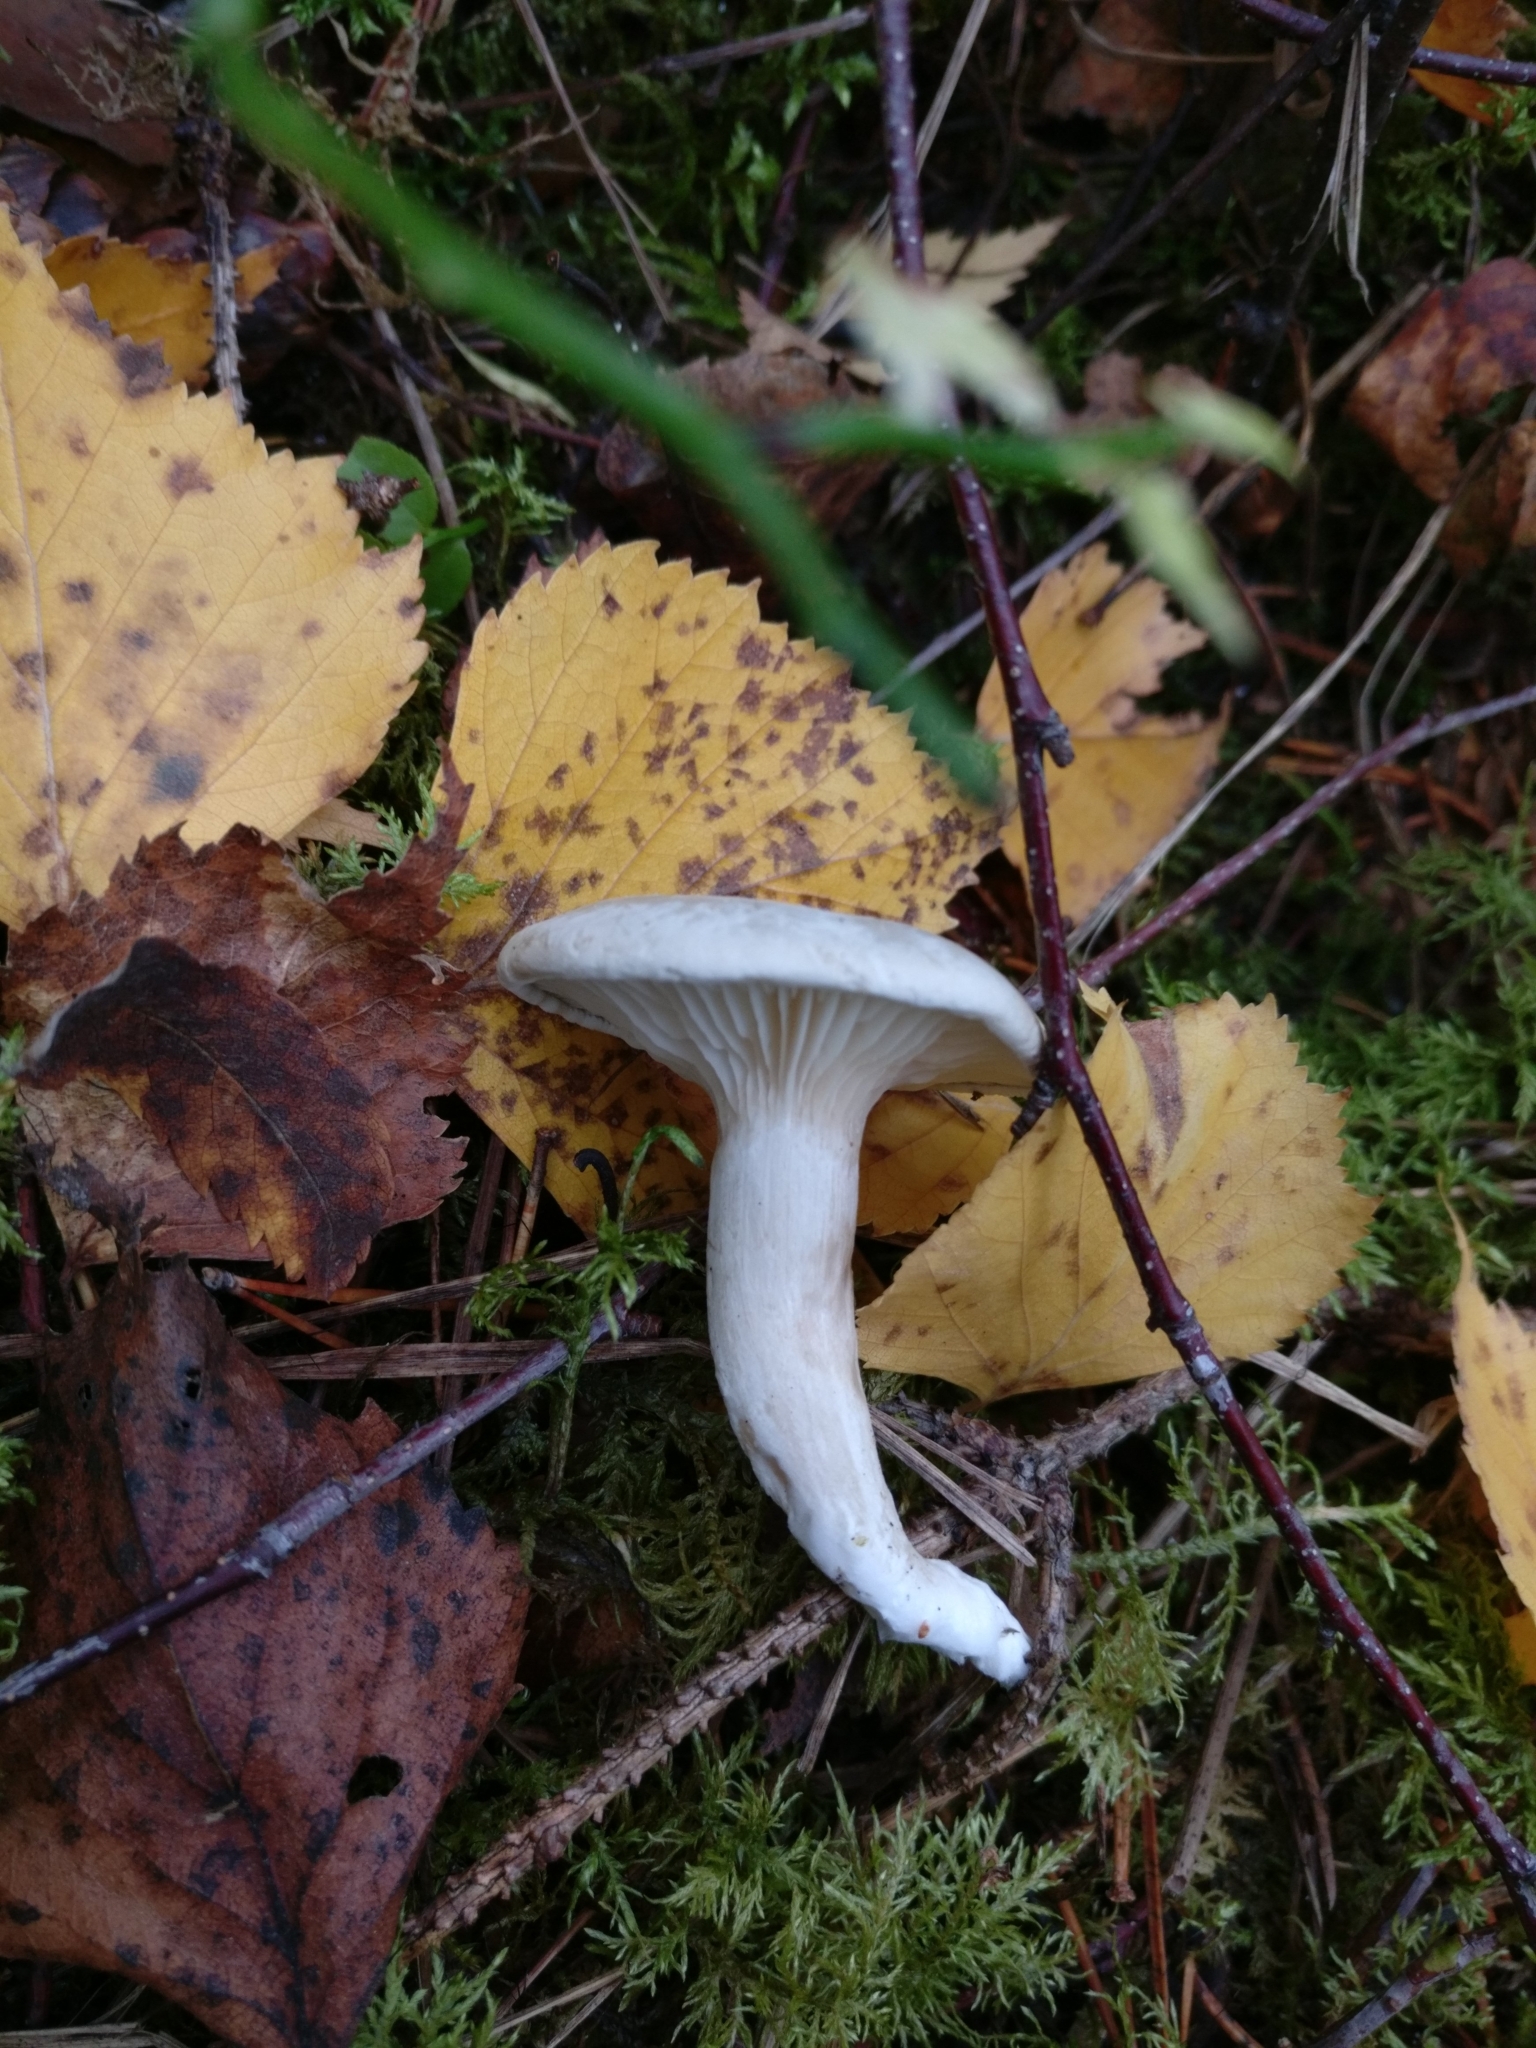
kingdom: Fungi
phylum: Basidiomycota
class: Agaricomycetes
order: Agaricales
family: Entolomataceae
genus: Clitopilus
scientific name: Clitopilus prunulus
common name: The miller
